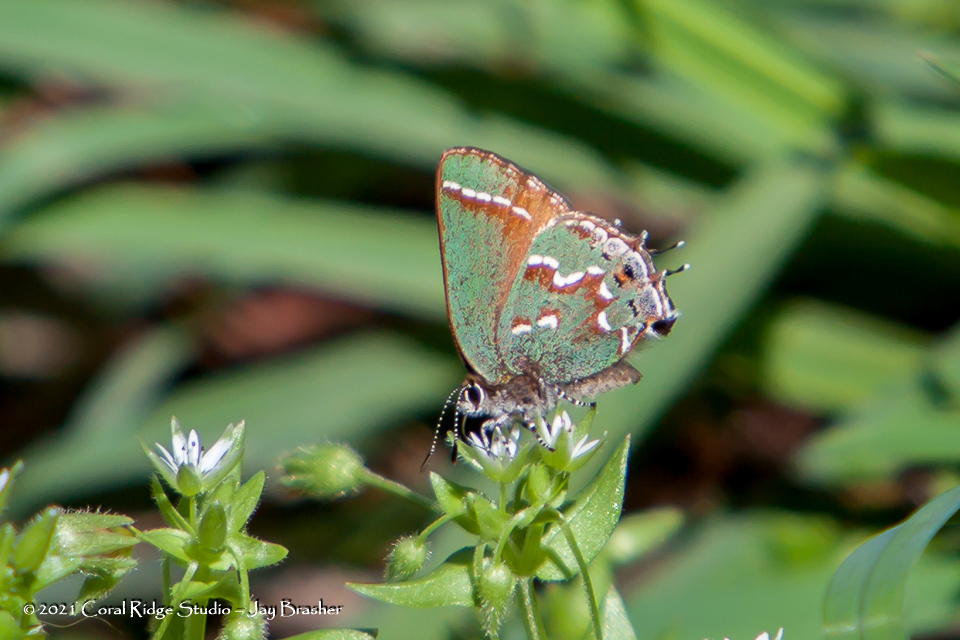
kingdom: Animalia
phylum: Arthropoda
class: Insecta
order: Lepidoptera
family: Lycaenidae
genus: Mitoura
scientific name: Mitoura gryneus
